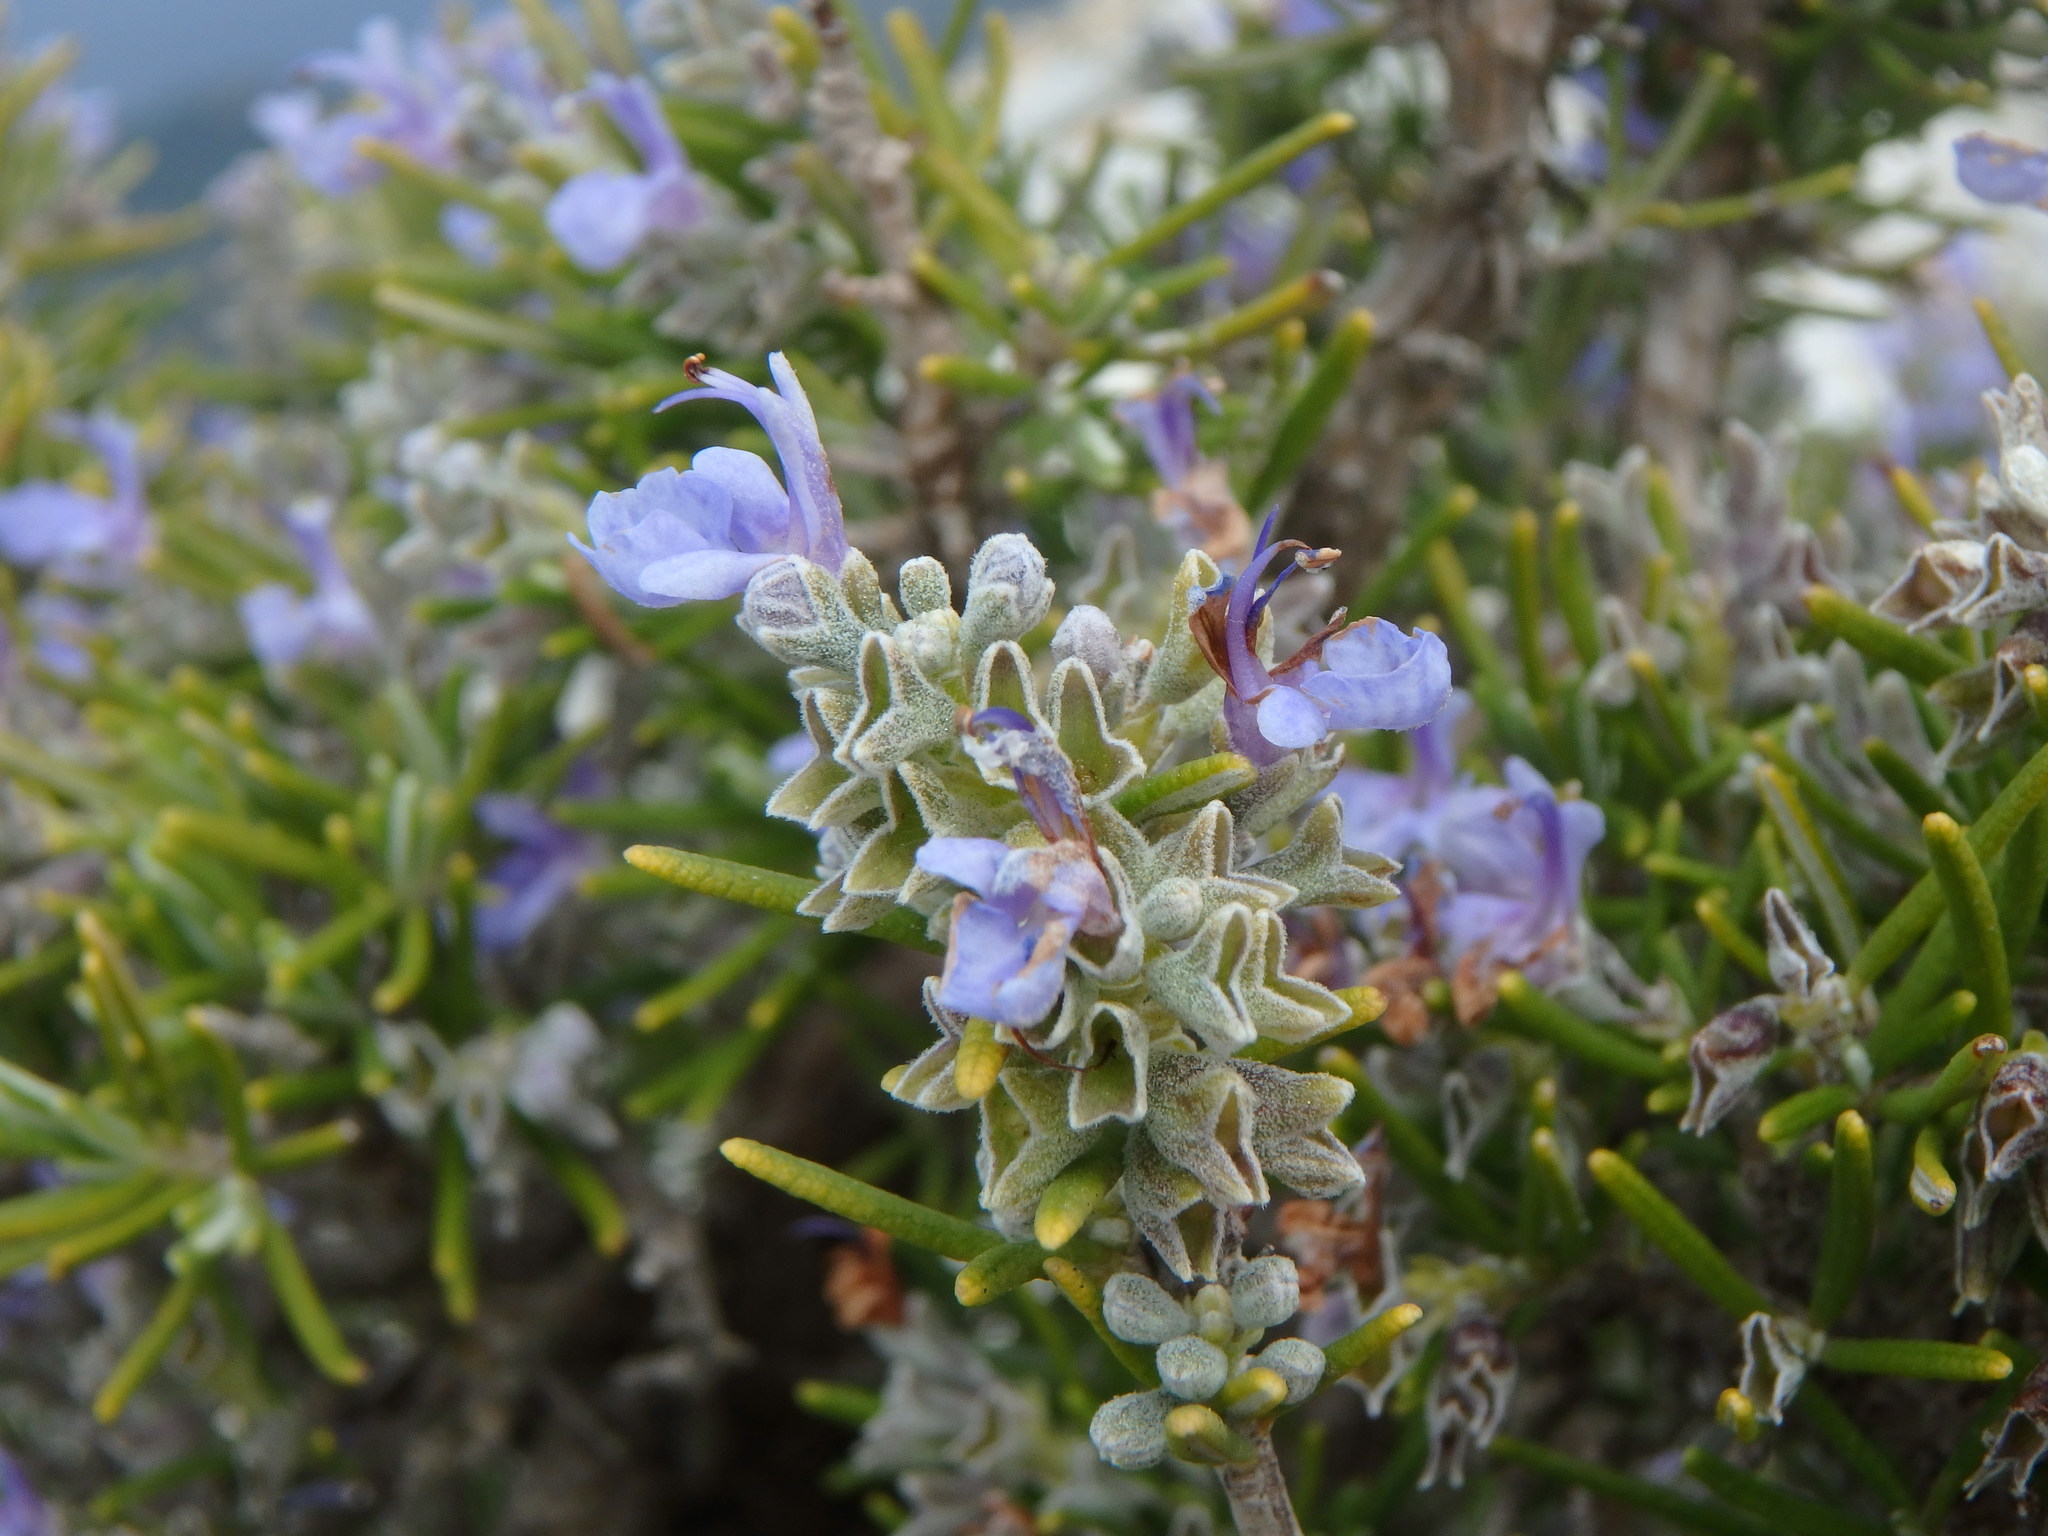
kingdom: Plantae
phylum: Tracheophyta
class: Magnoliopsida
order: Lamiales
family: Lamiaceae
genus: Salvia
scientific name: Salvia rosmarinus
